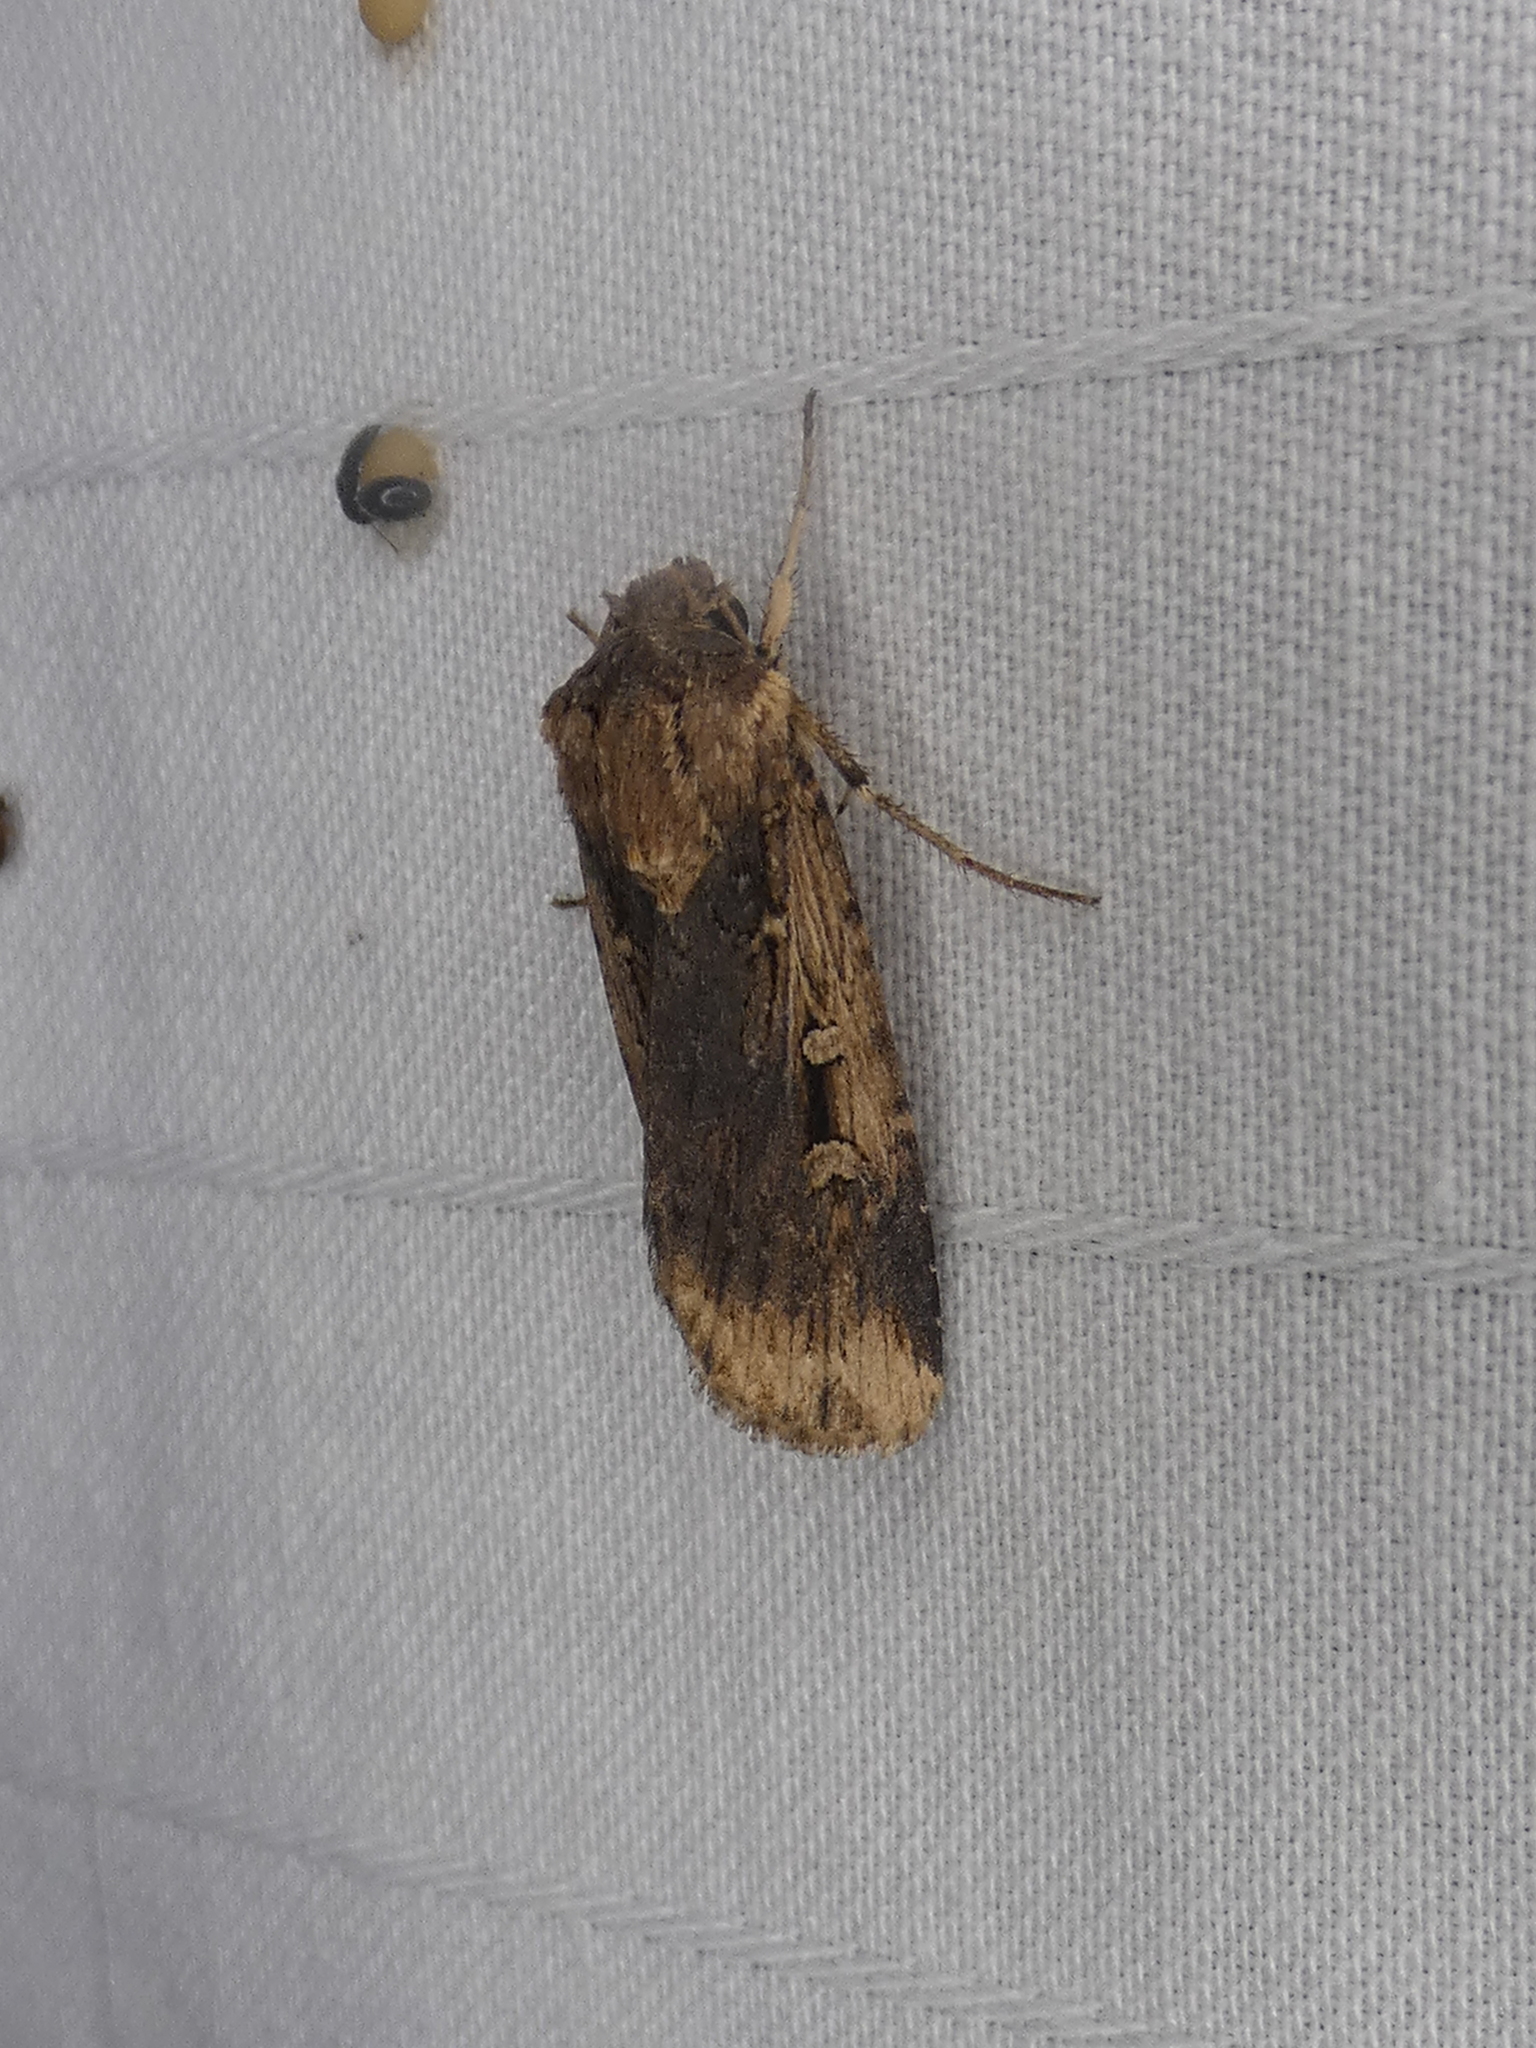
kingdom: Animalia
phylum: Arthropoda
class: Insecta
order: Lepidoptera
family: Noctuidae
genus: Feltia
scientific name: Feltia subterranea
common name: Granulate cutworm
